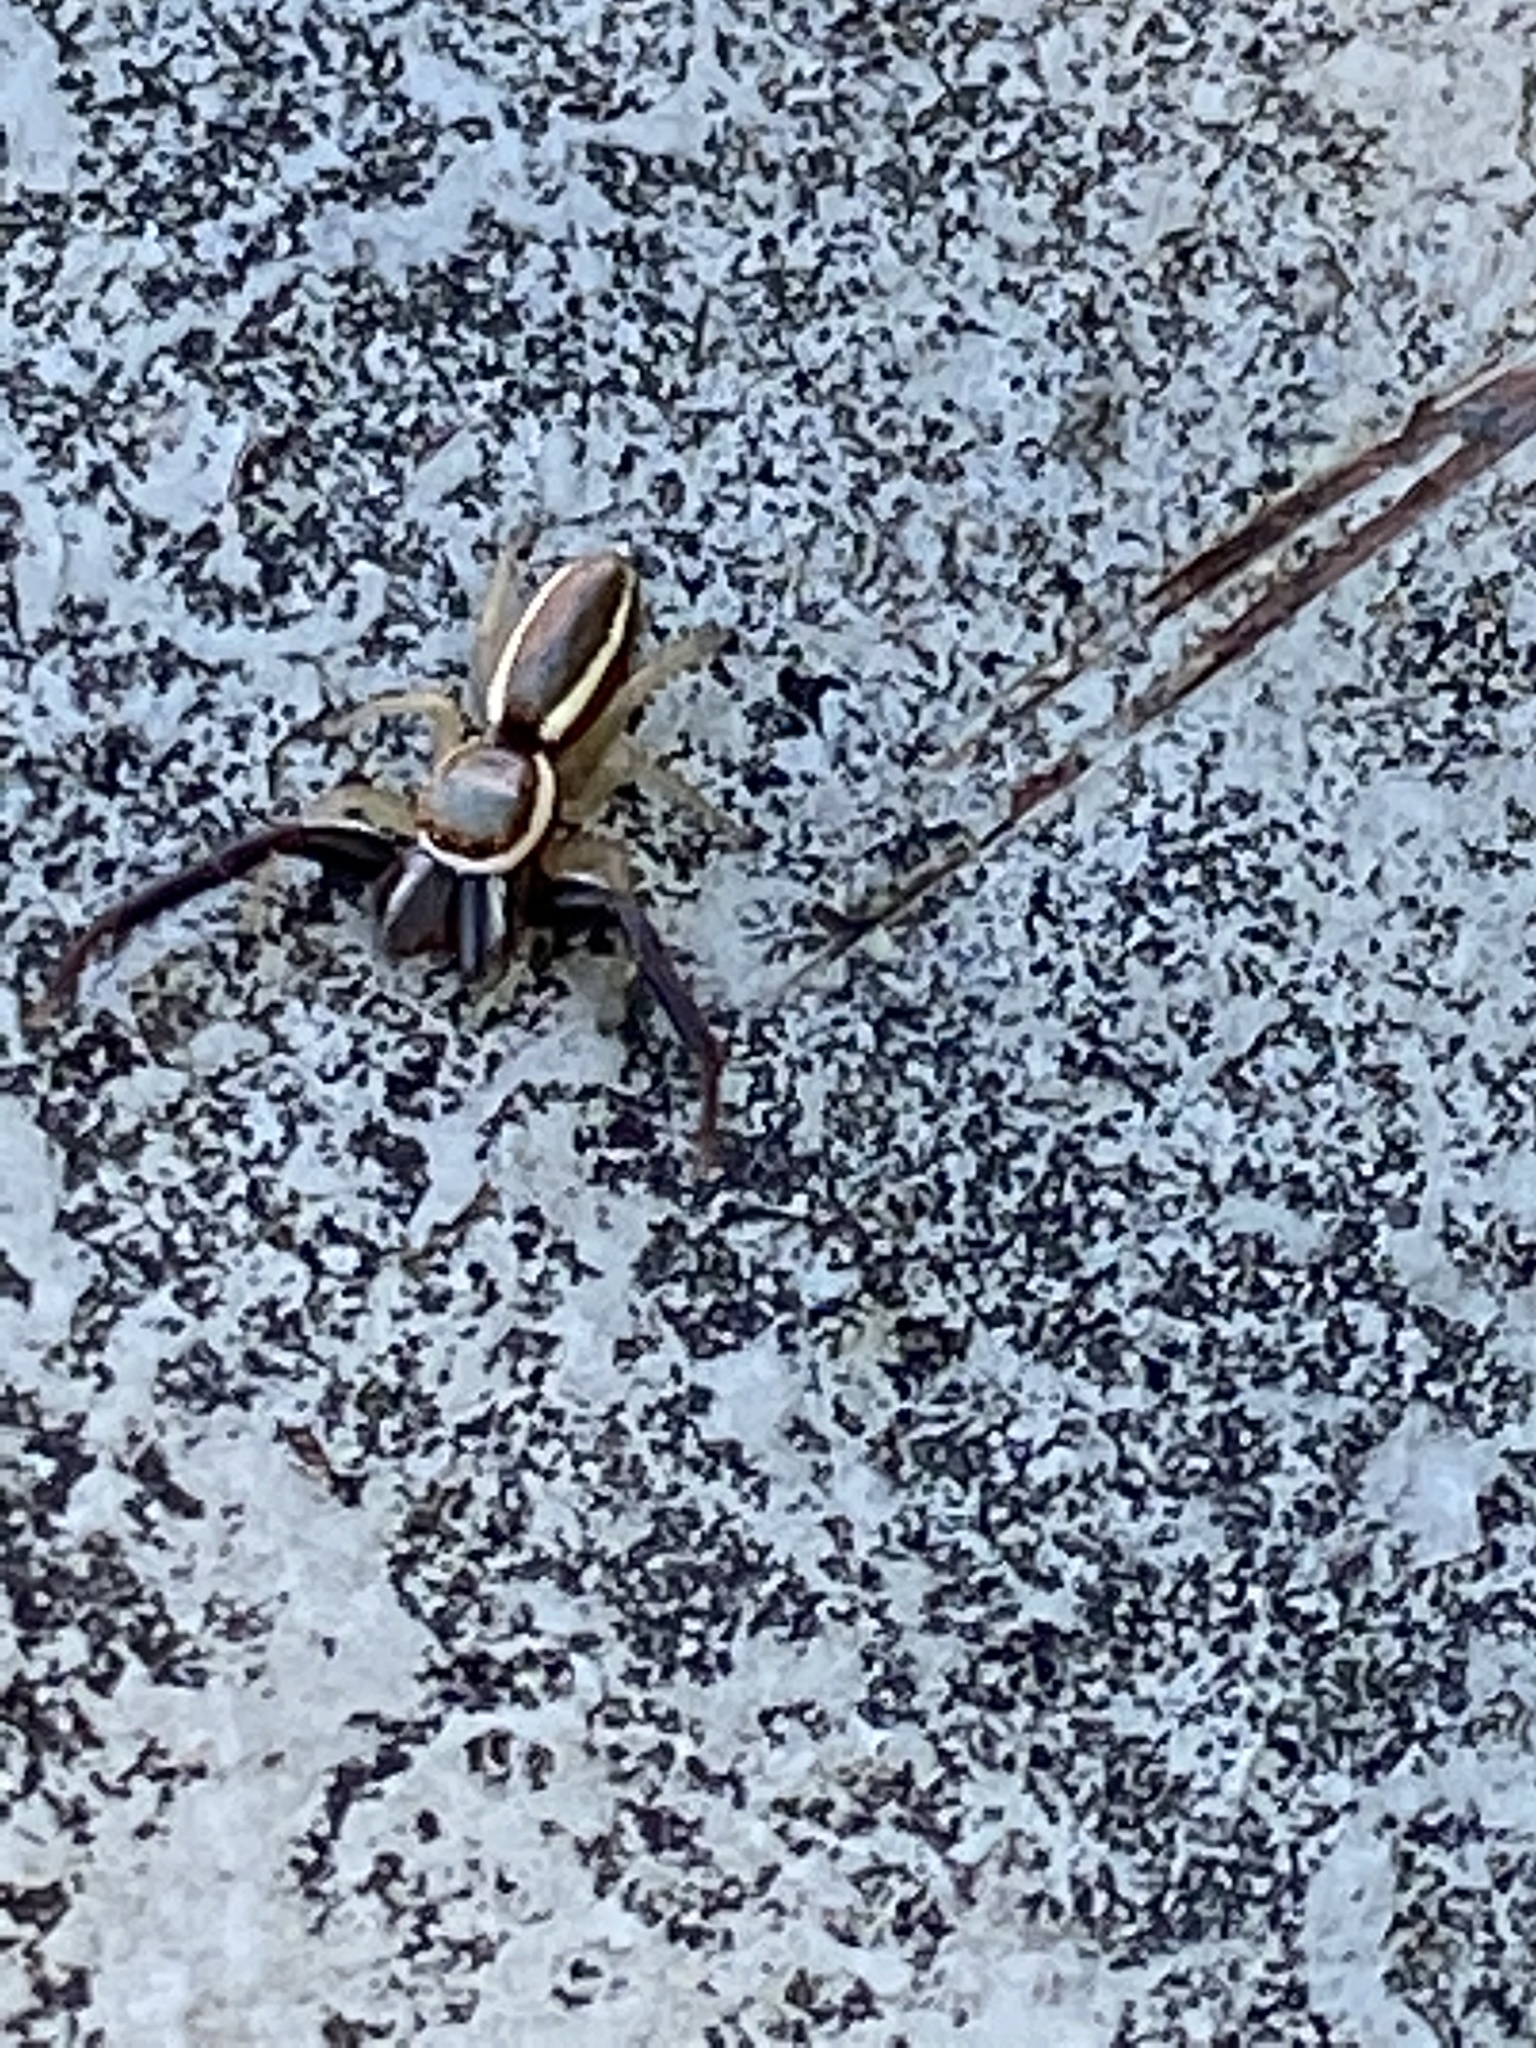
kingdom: Animalia
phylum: Arthropoda
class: Arachnida
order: Araneae
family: Salticidae
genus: Hentzia
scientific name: Hentzia palmarum
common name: Common hentz jumping spider
